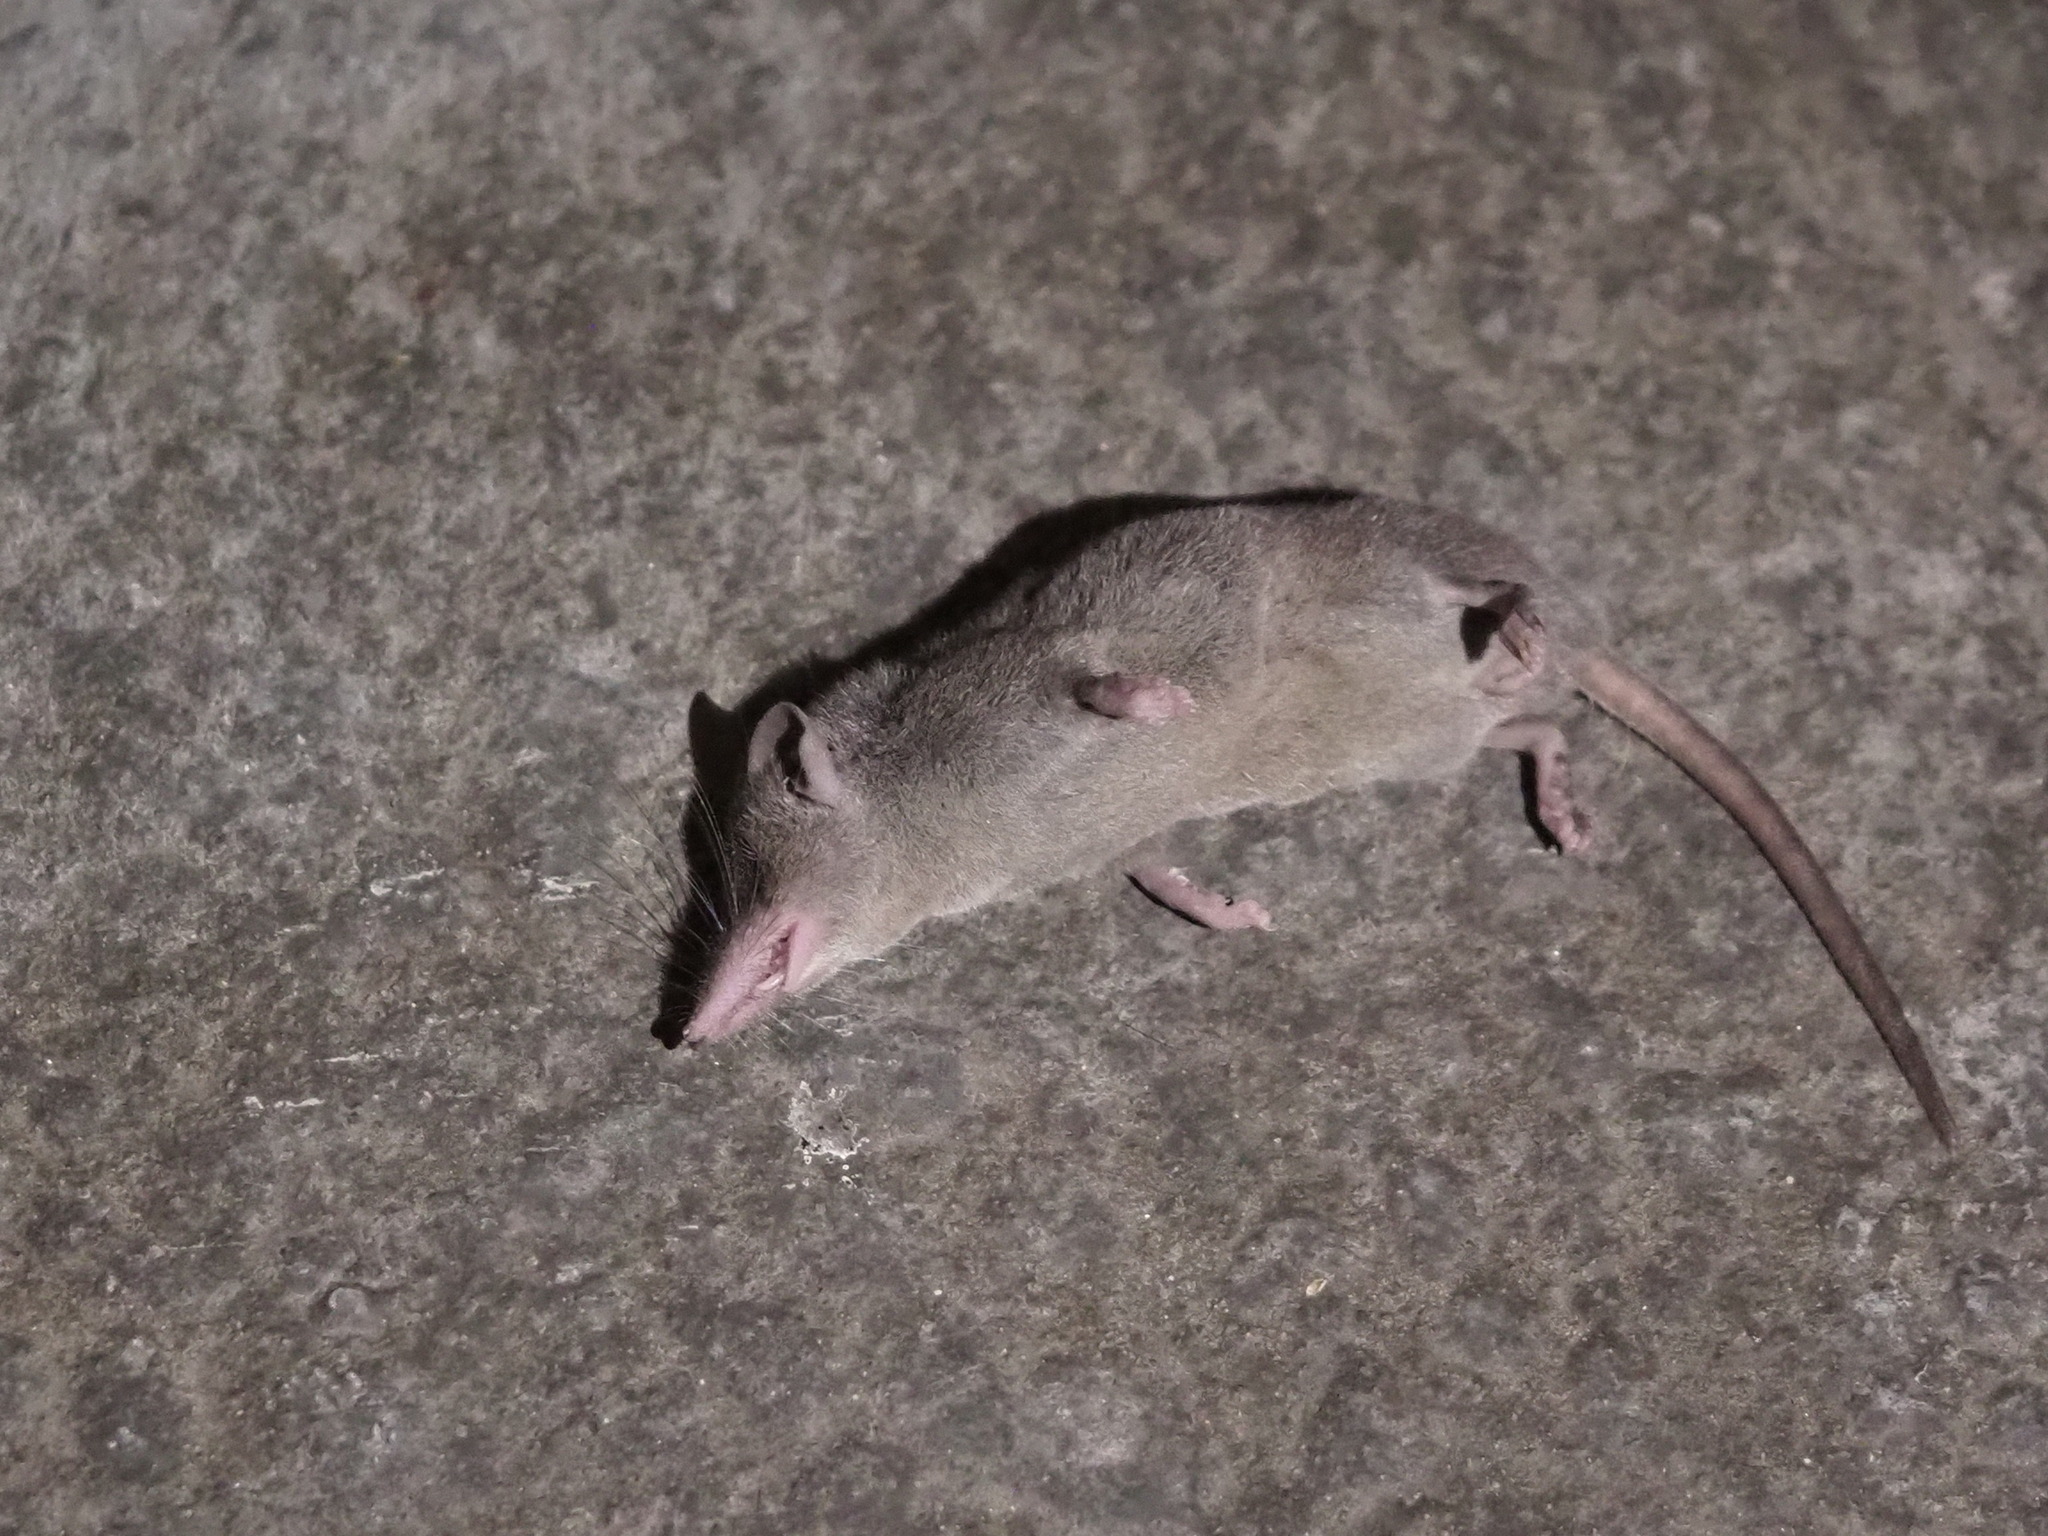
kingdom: Animalia
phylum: Chordata
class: Mammalia
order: Soricomorpha
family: Soricidae
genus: Suncus
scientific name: Suncus murinus
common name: Asian house shrew
